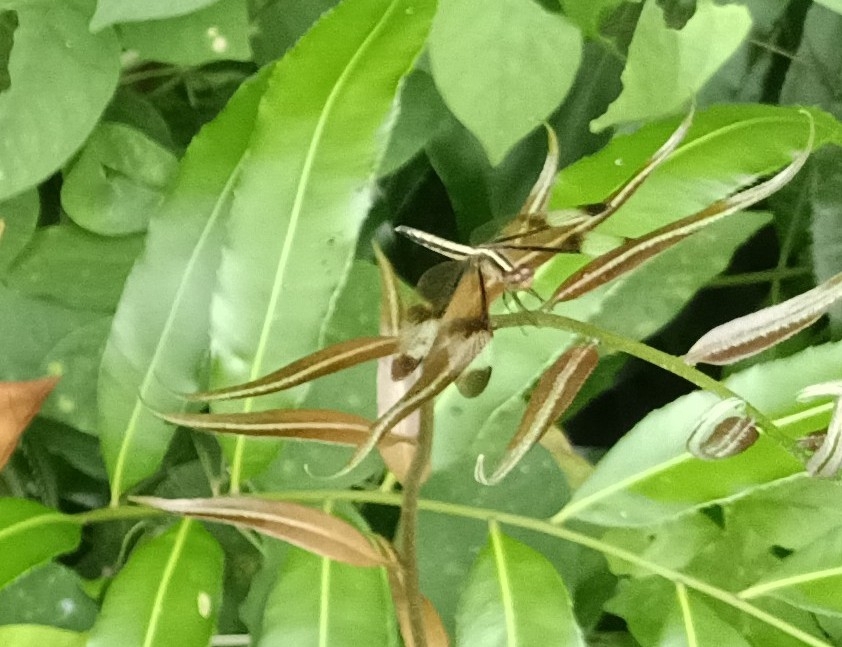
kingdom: Animalia
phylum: Arthropoda
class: Insecta
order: Odonata
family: Libellulidae
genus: Neurothemis
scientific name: Neurothemis tullia
